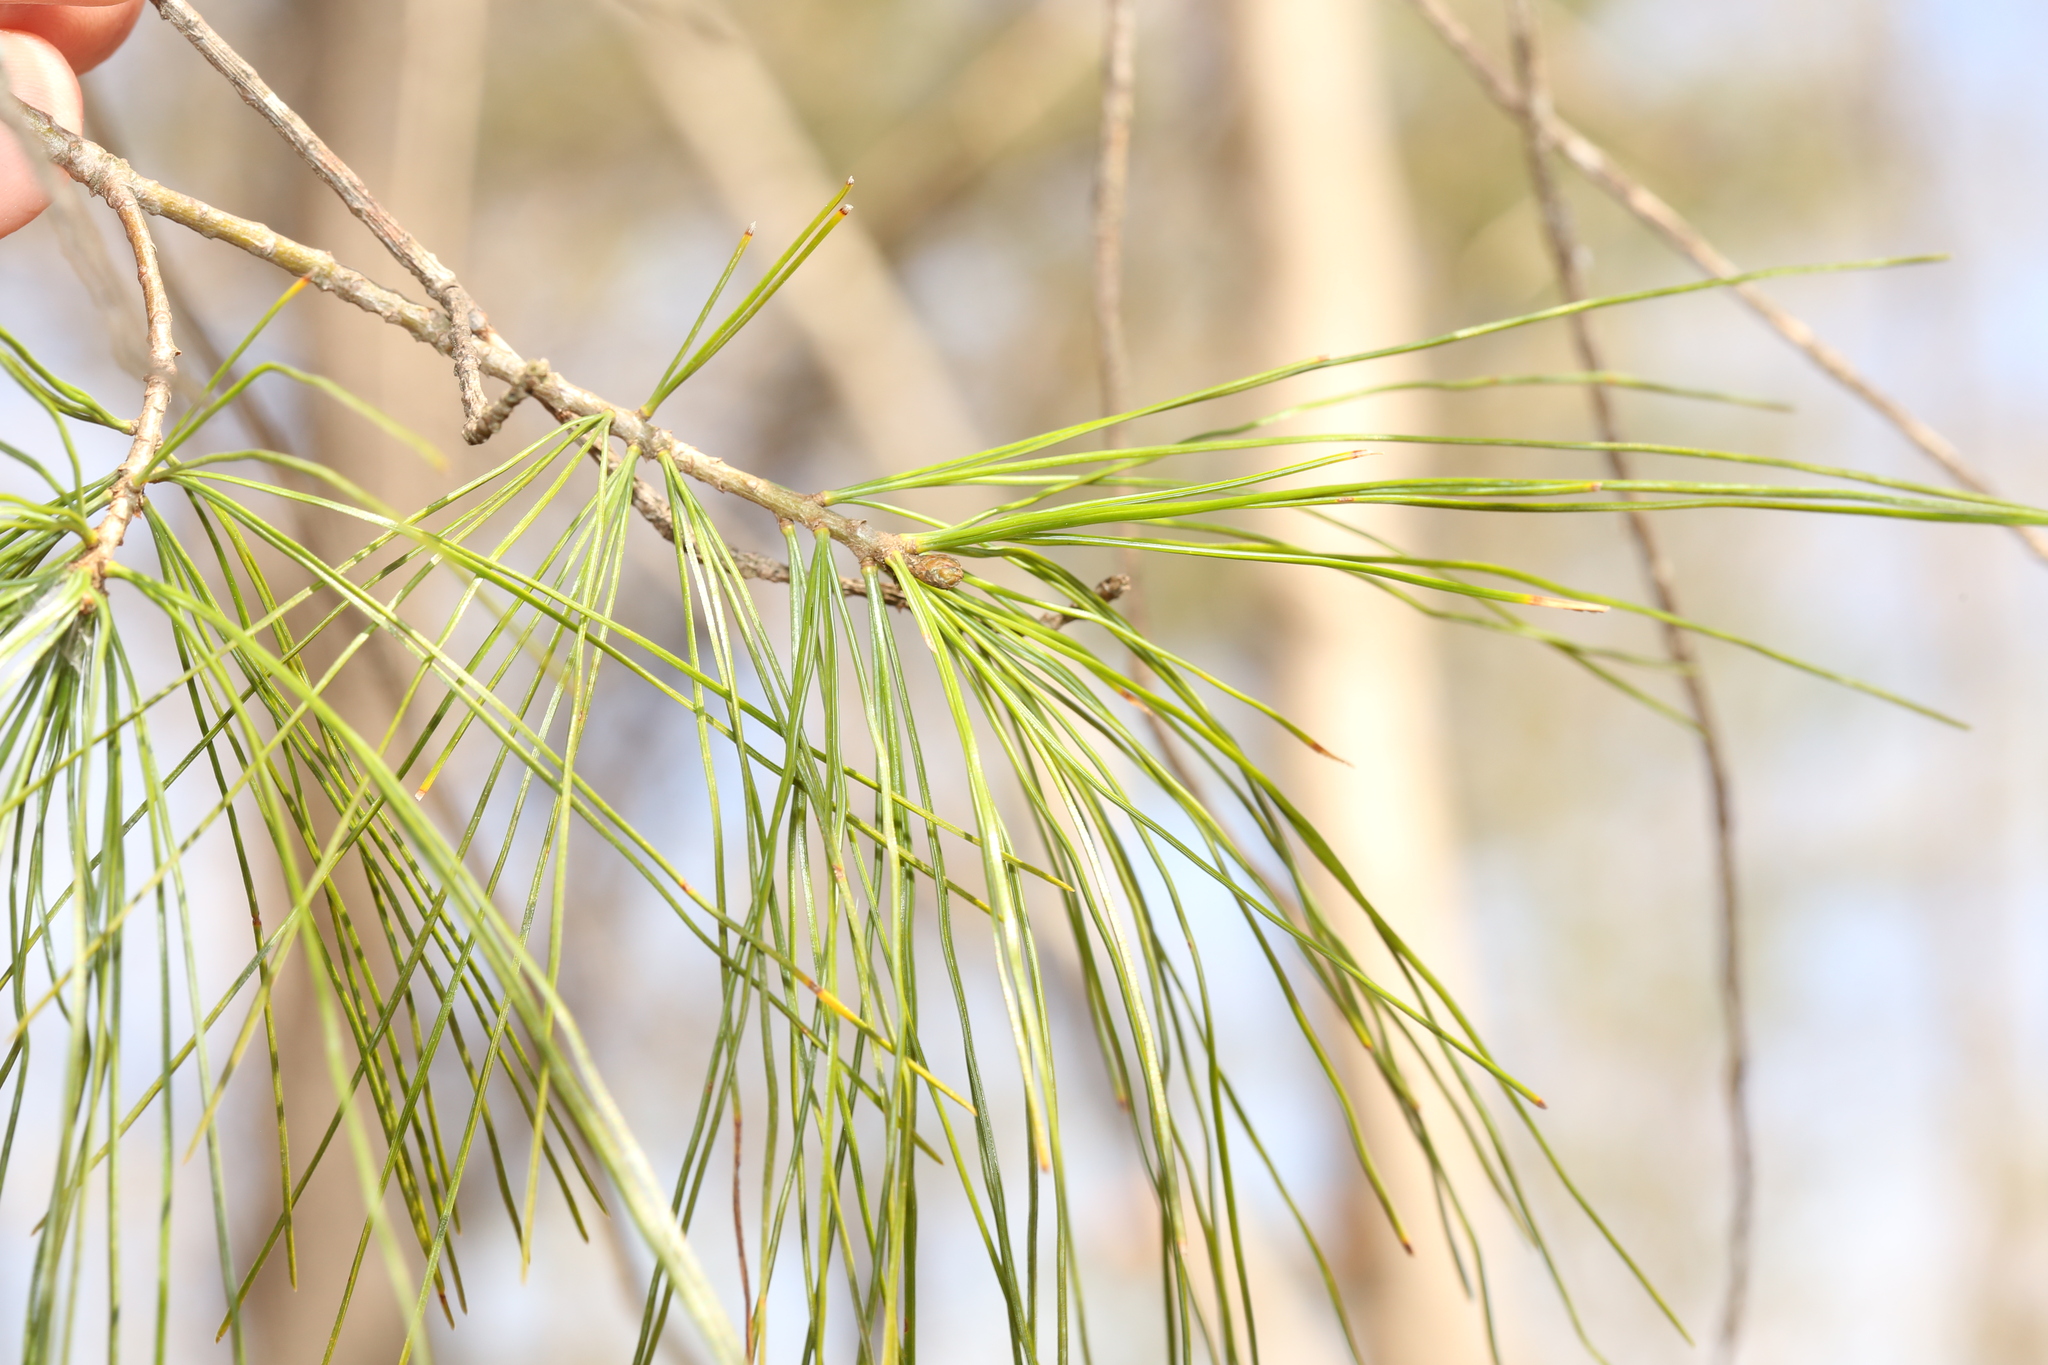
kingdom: Plantae
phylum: Tracheophyta
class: Pinopsida
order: Pinales
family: Pinaceae
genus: Pinus
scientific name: Pinus strobus
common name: Weymouth pine
